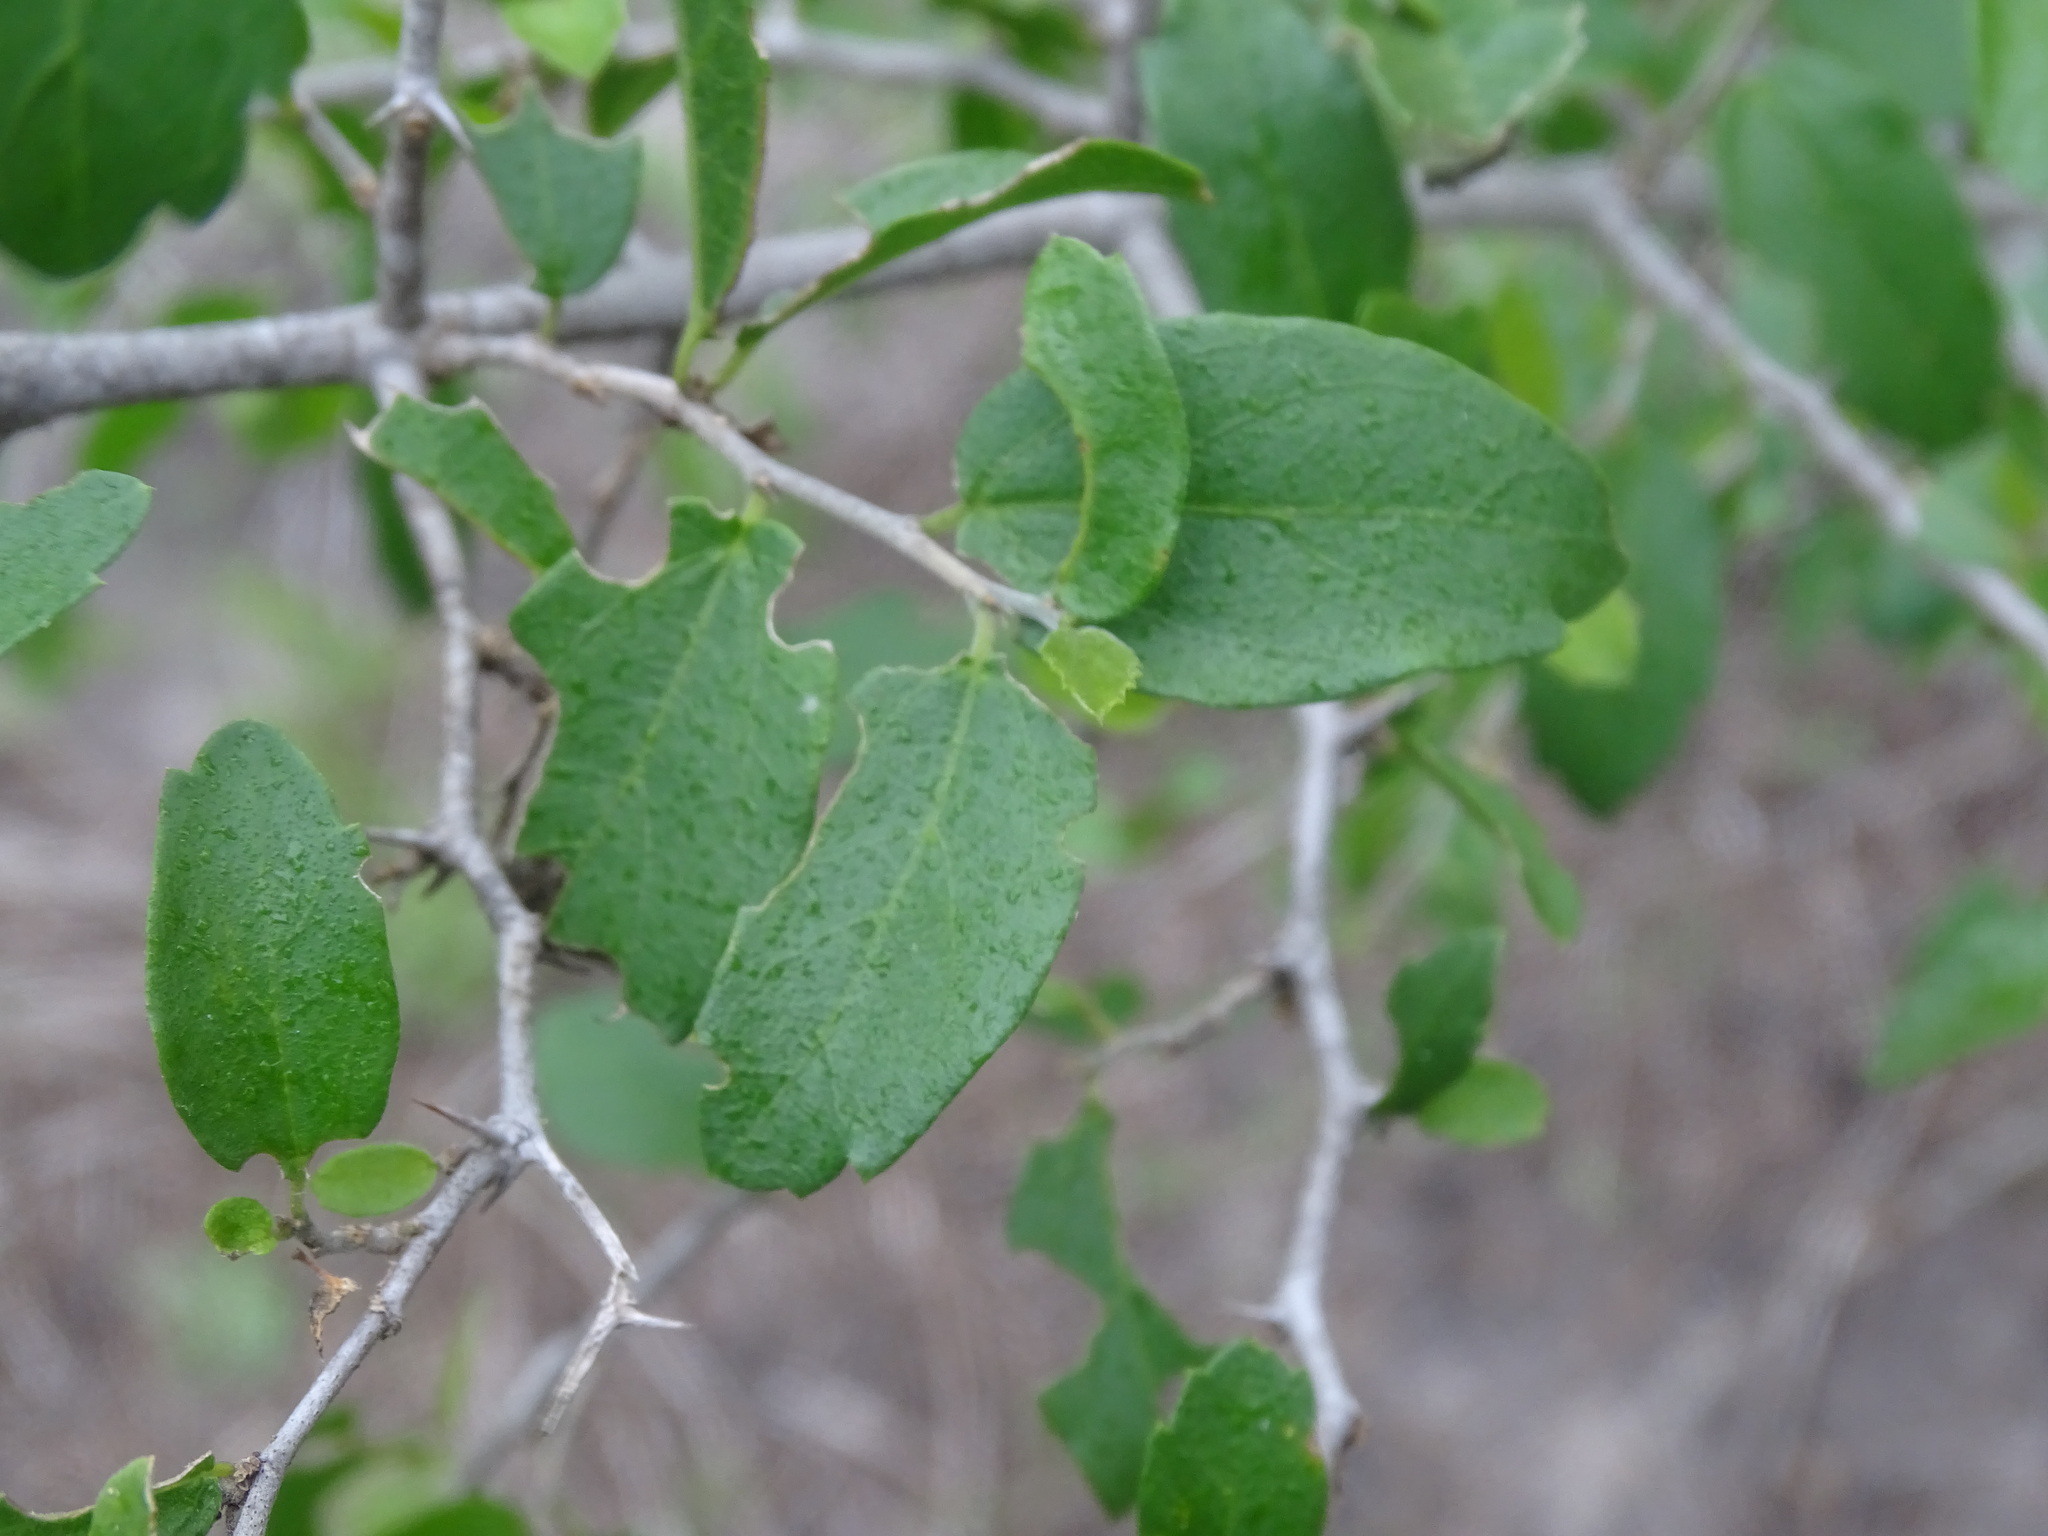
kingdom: Plantae
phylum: Tracheophyta
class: Magnoliopsida
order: Rosales
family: Cannabaceae
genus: Celtis
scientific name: Celtis pallida
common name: Desert hackberry
